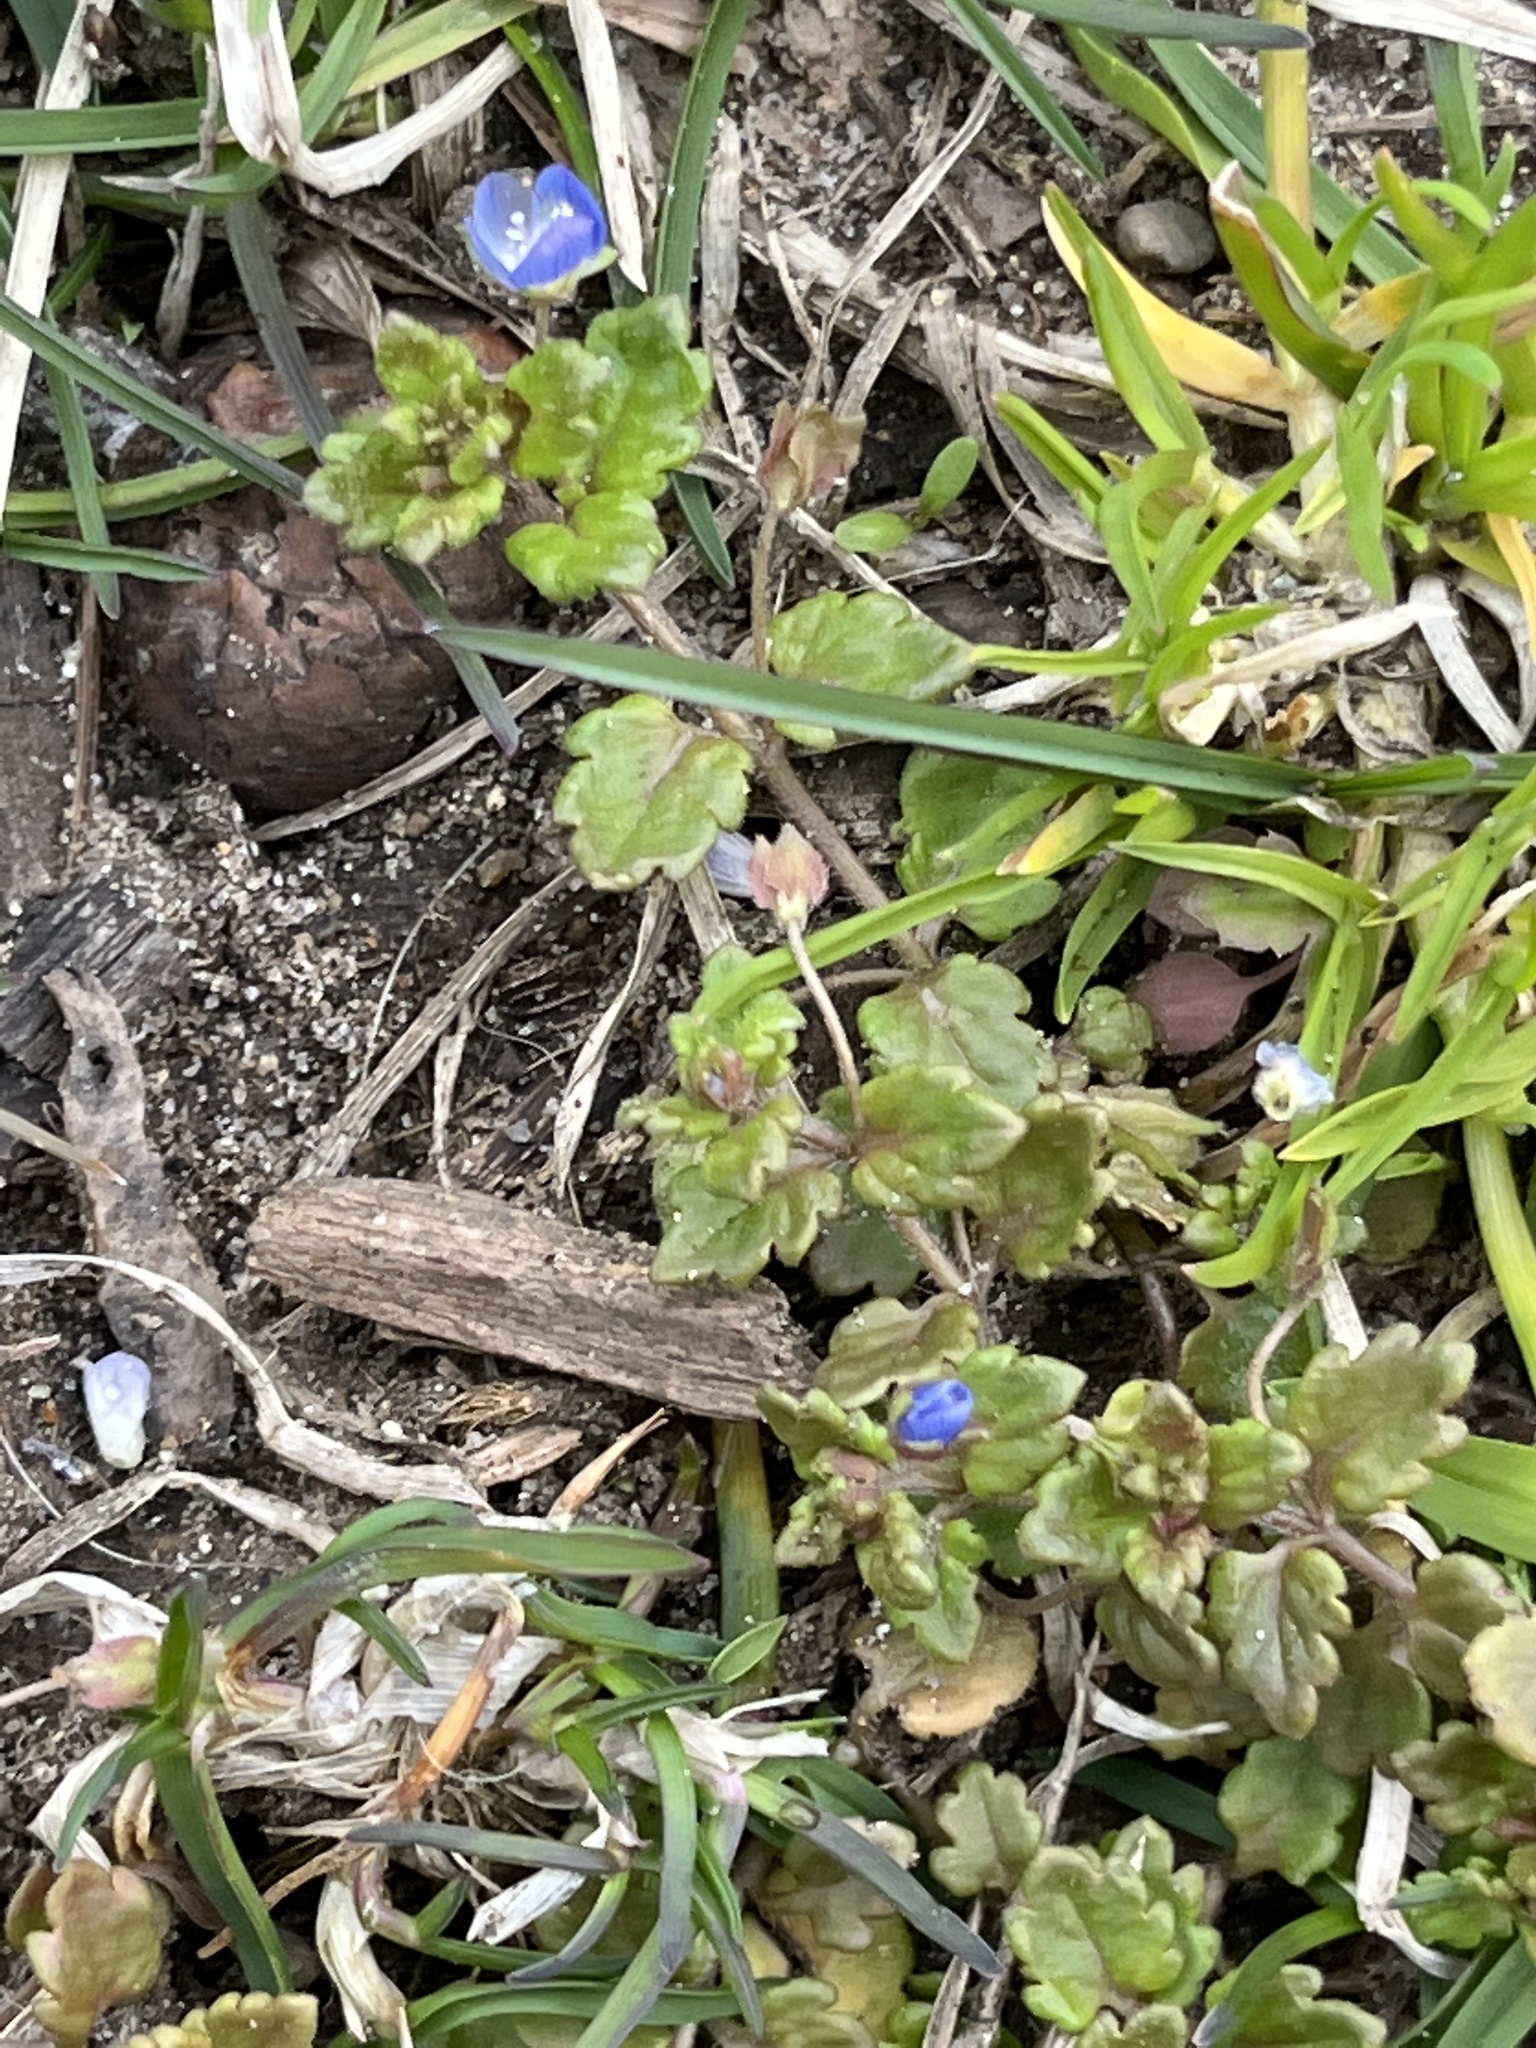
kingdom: Plantae
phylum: Tracheophyta
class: Magnoliopsida
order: Lamiales
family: Plantaginaceae
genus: Veronica
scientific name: Veronica polita
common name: Grey field-speedwell
